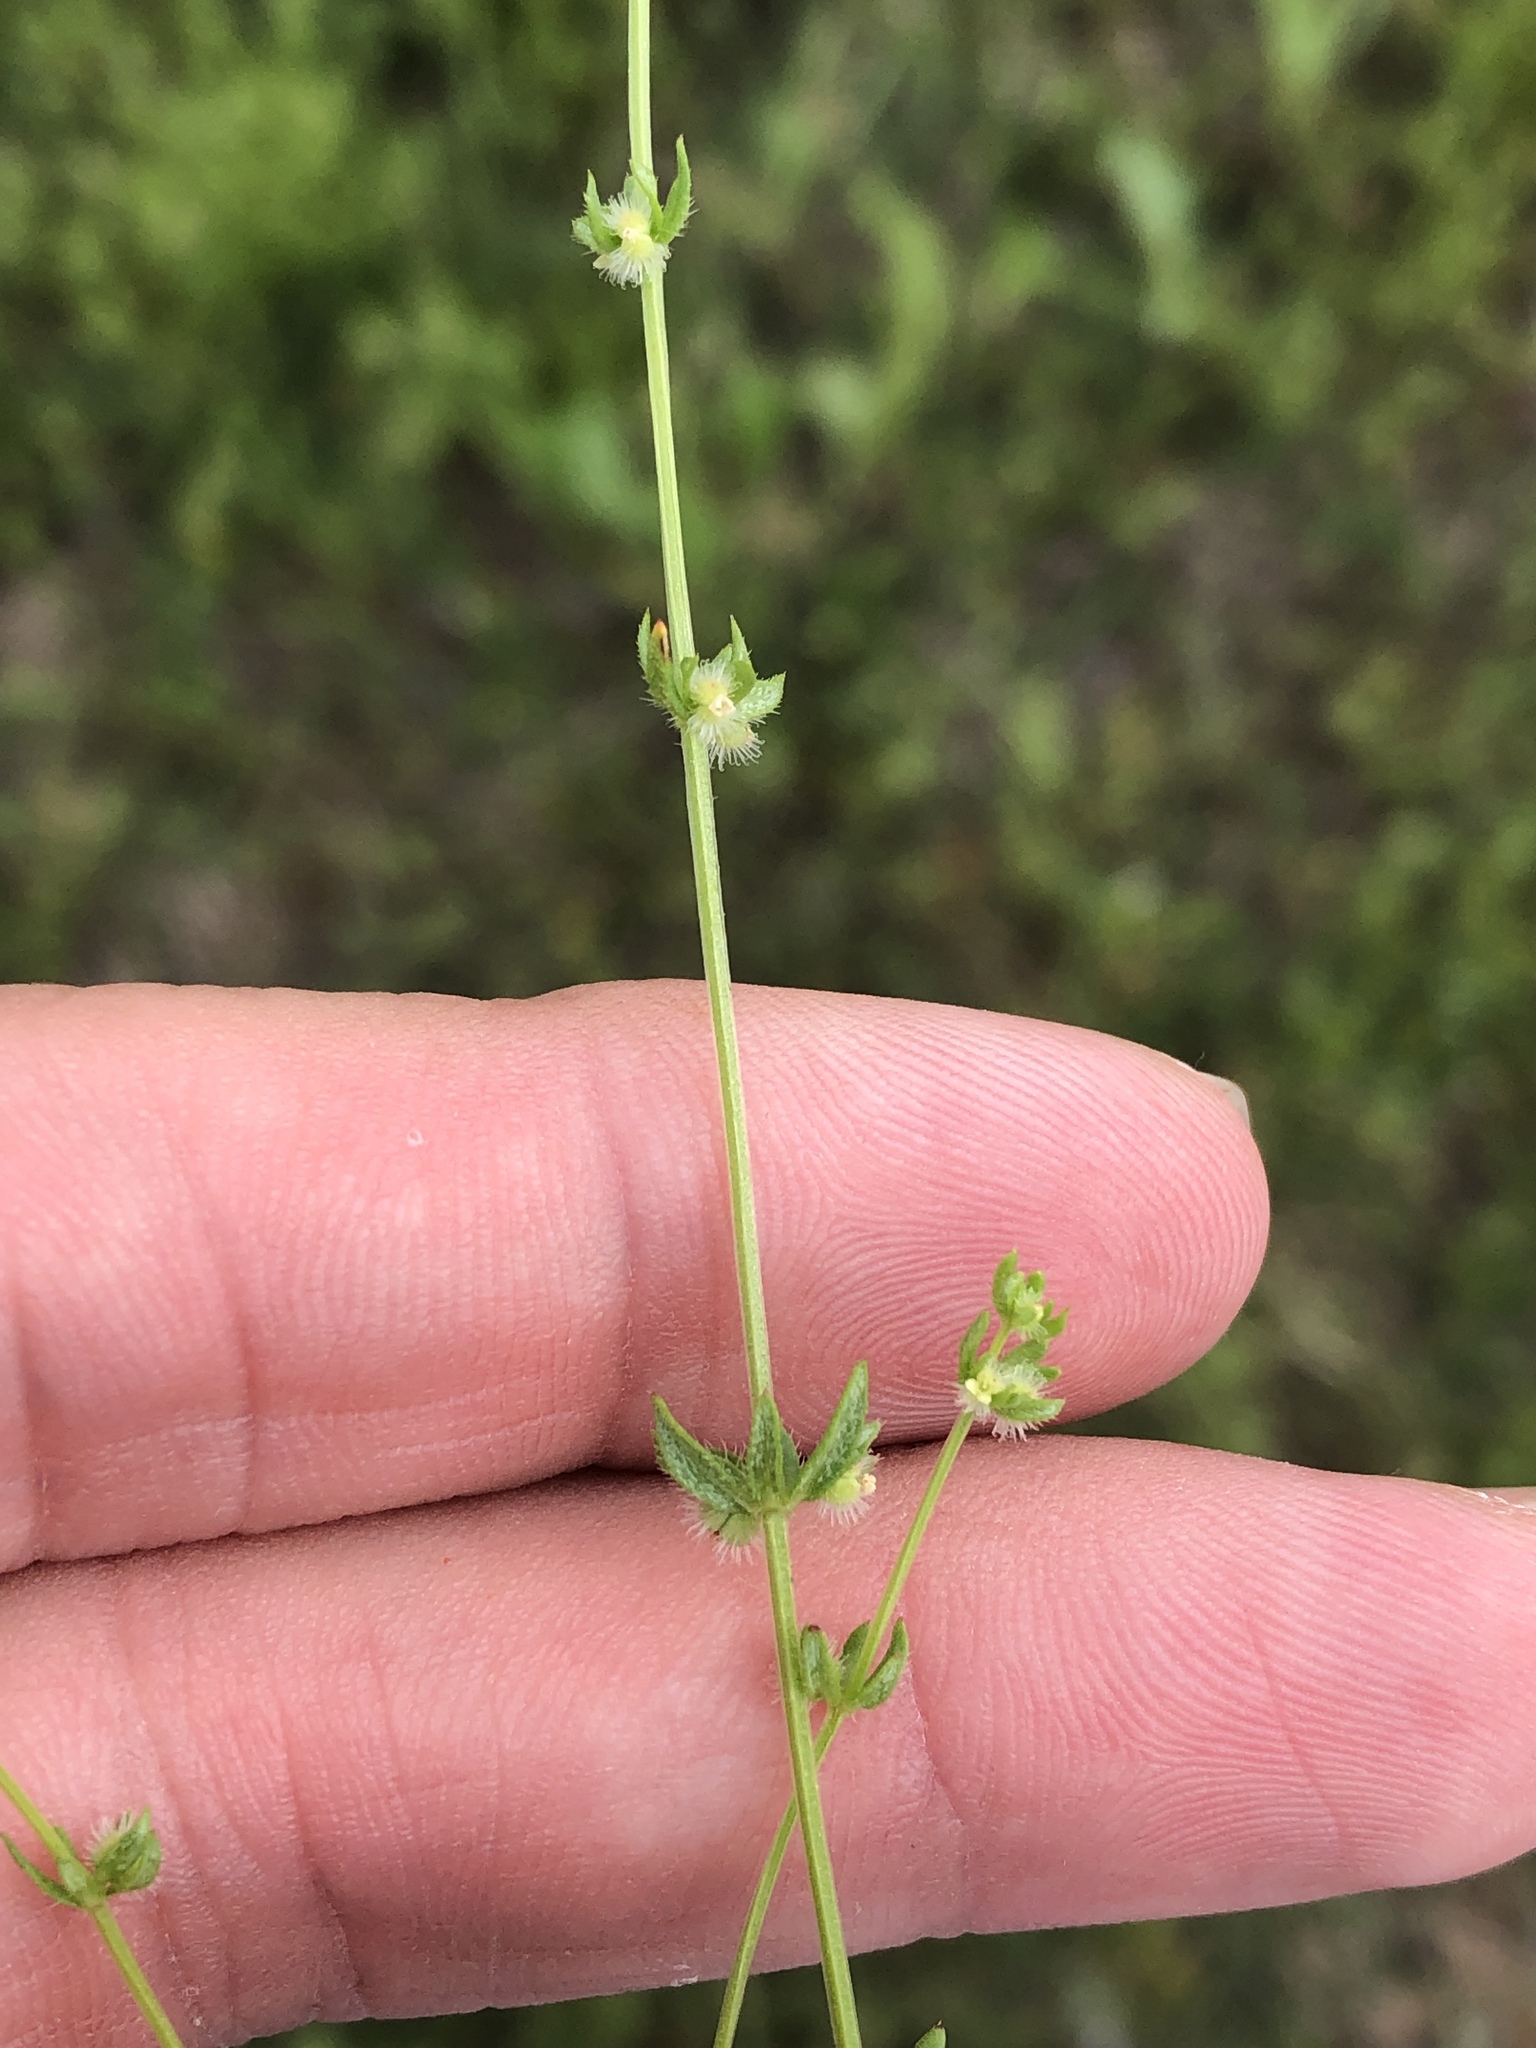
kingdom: Plantae
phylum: Tracheophyta
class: Magnoliopsida
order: Gentianales
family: Rubiaceae
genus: Galium
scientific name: Galium virgatum
